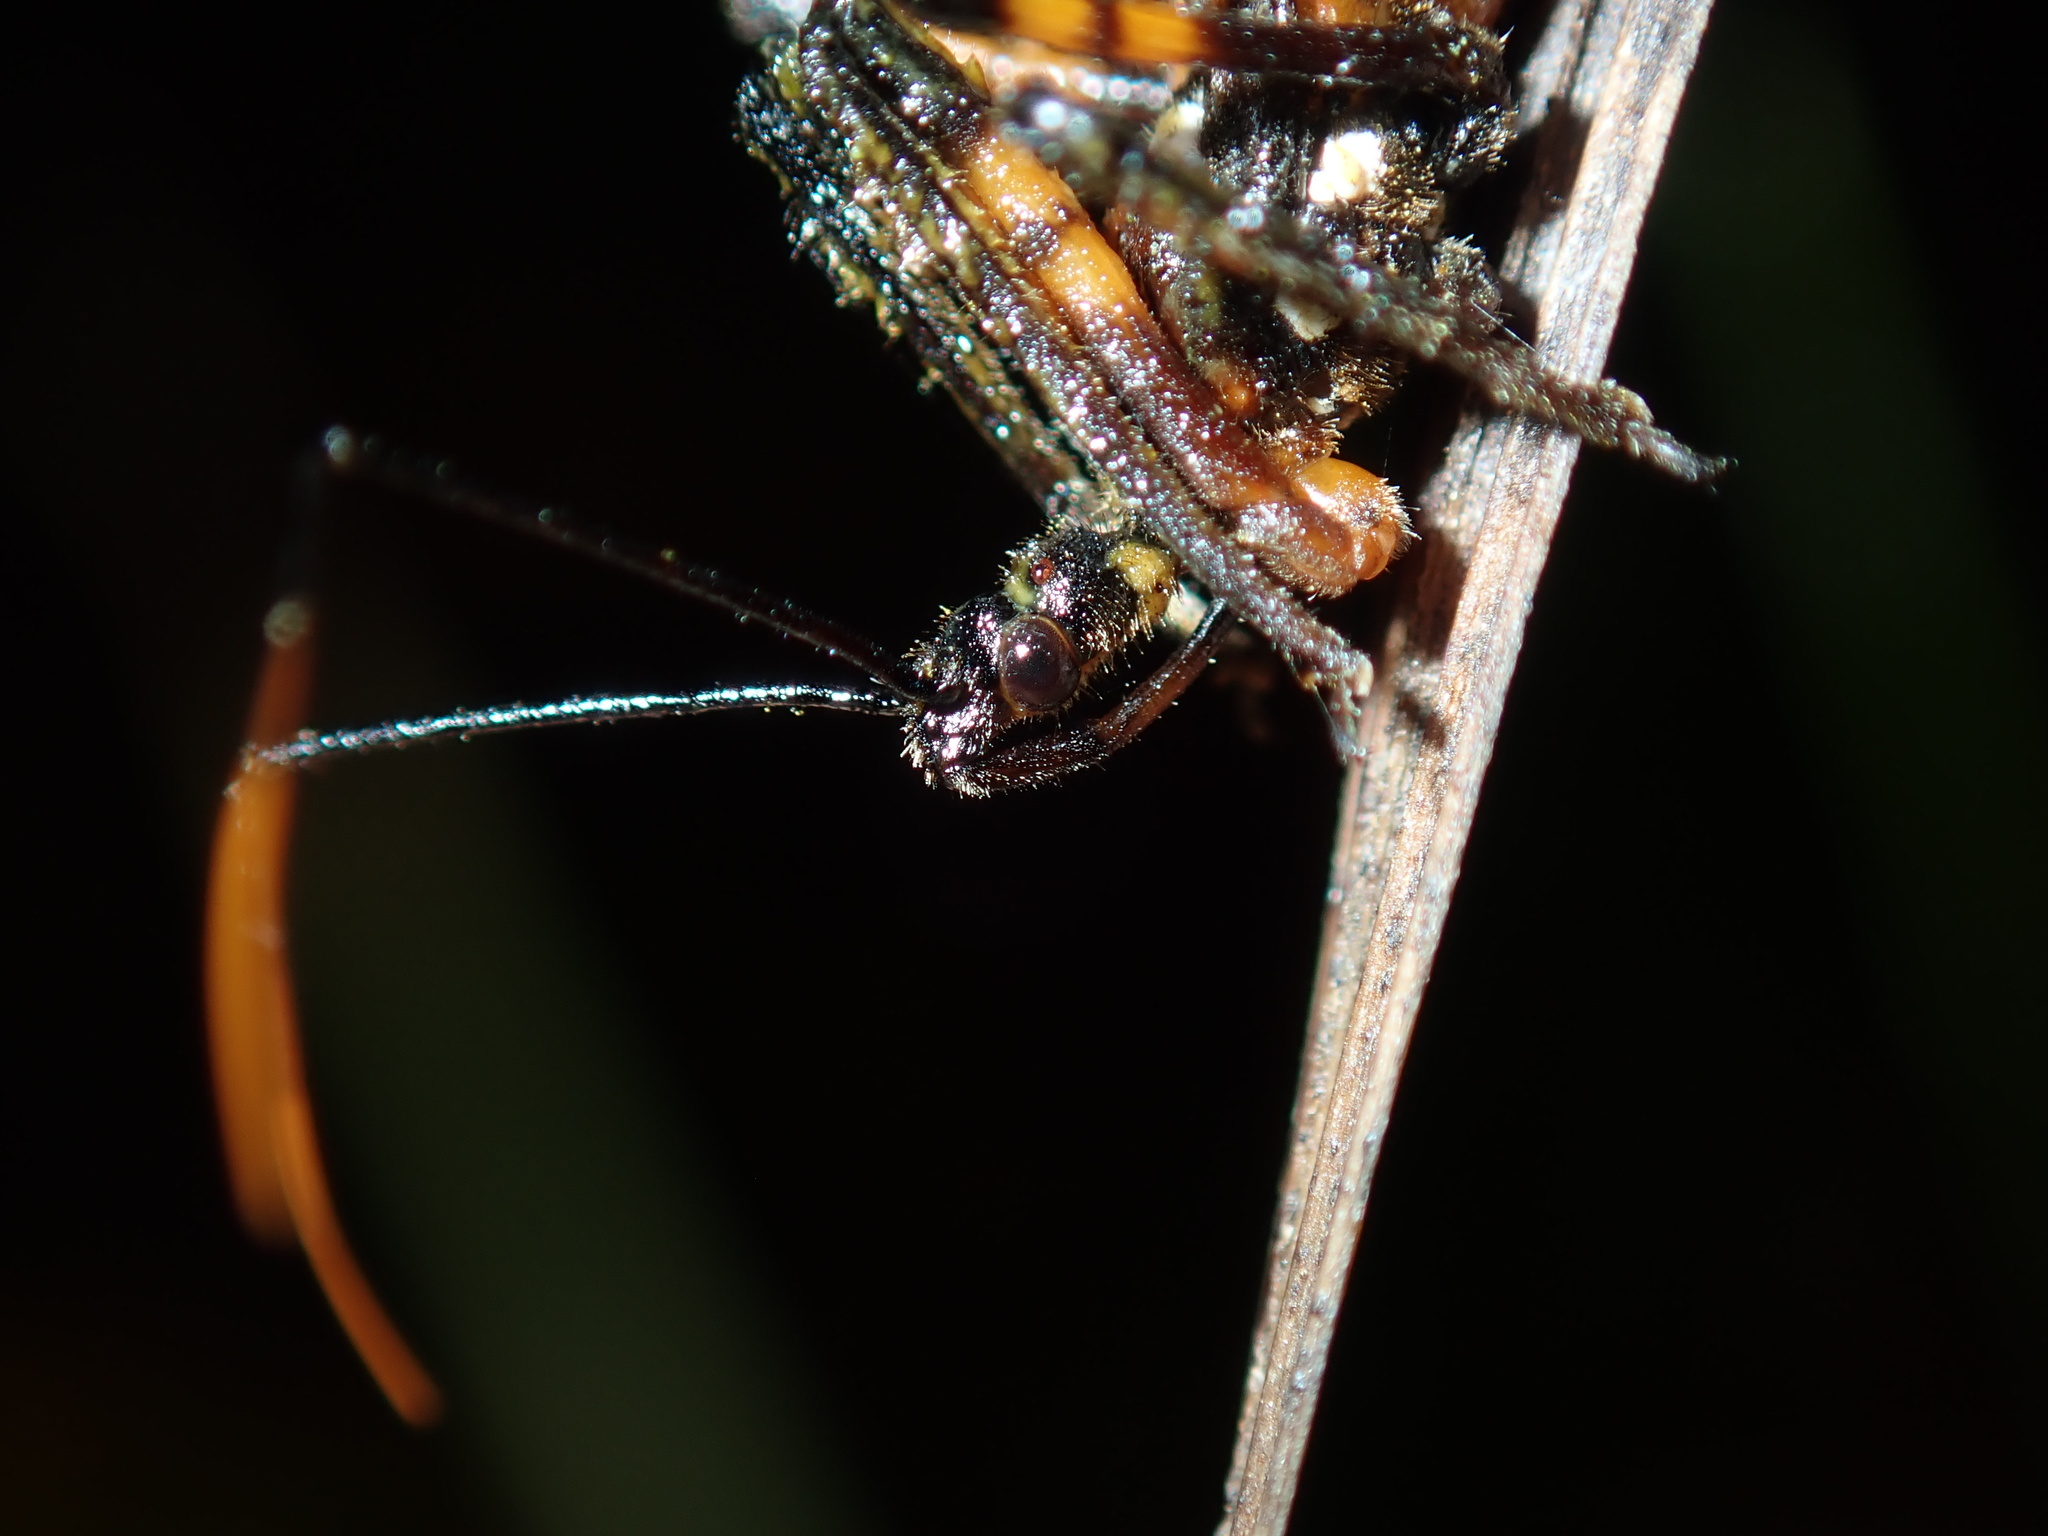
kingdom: Animalia
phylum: Arthropoda
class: Insecta
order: Hemiptera
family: Reduviidae
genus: Austrovelinus
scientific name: Austrovelinus varius
